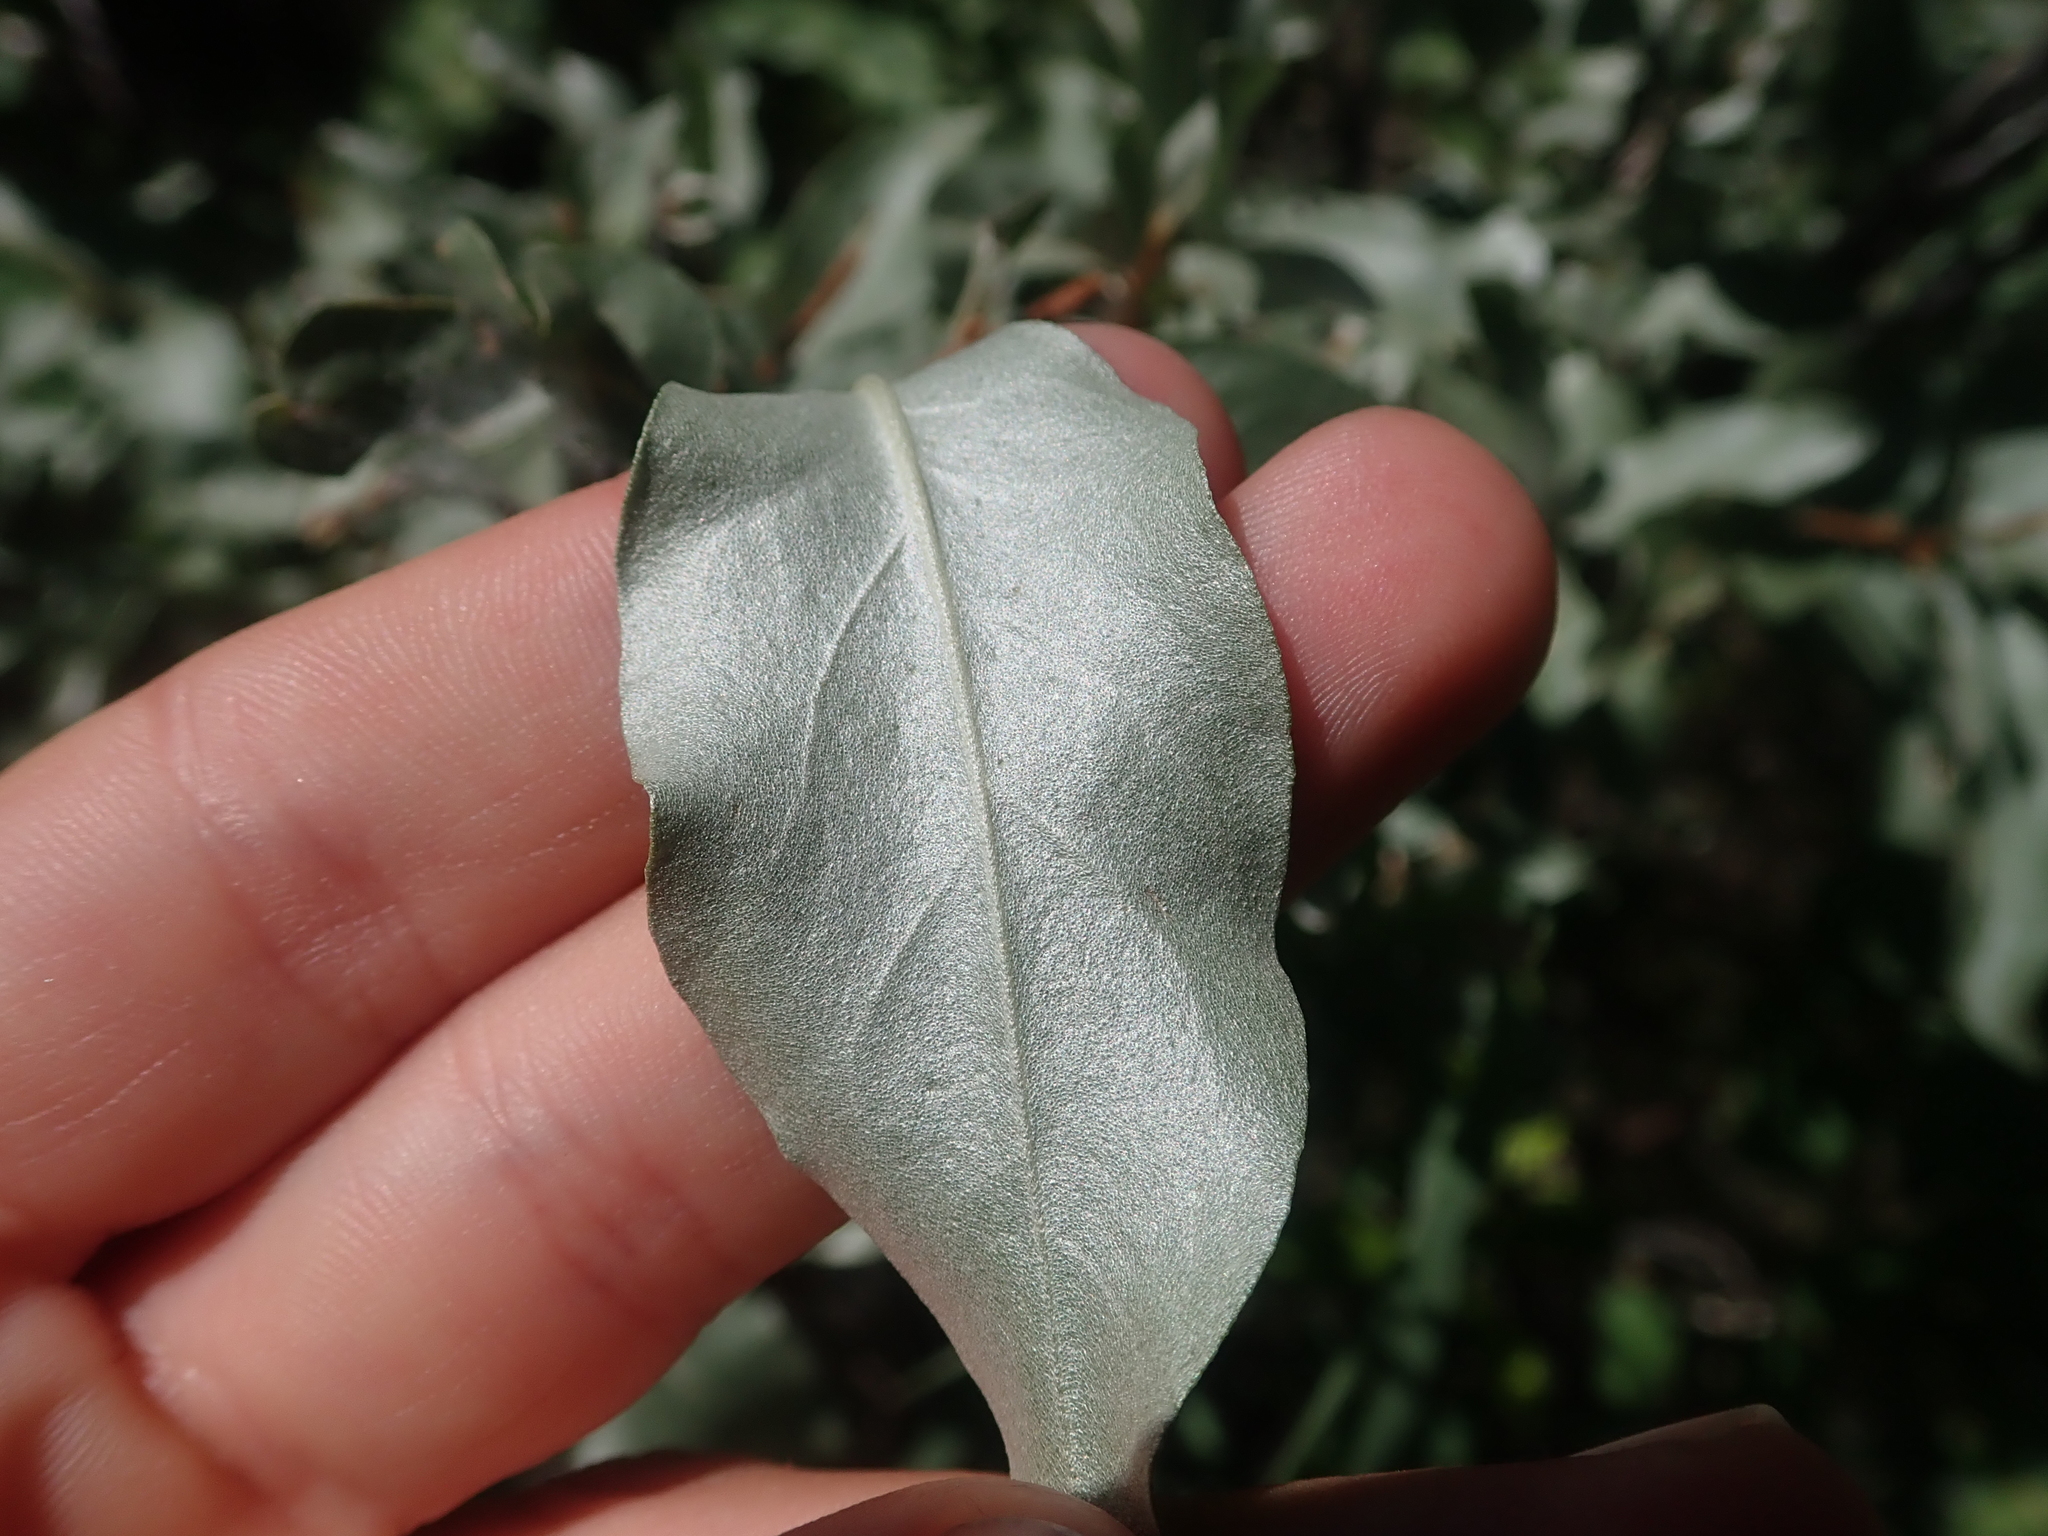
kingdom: Plantae
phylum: Tracheophyta
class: Magnoliopsida
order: Rosales
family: Elaeagnaceae
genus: Elaeagnus
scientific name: Elaeagnus commutata
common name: Silverberry
